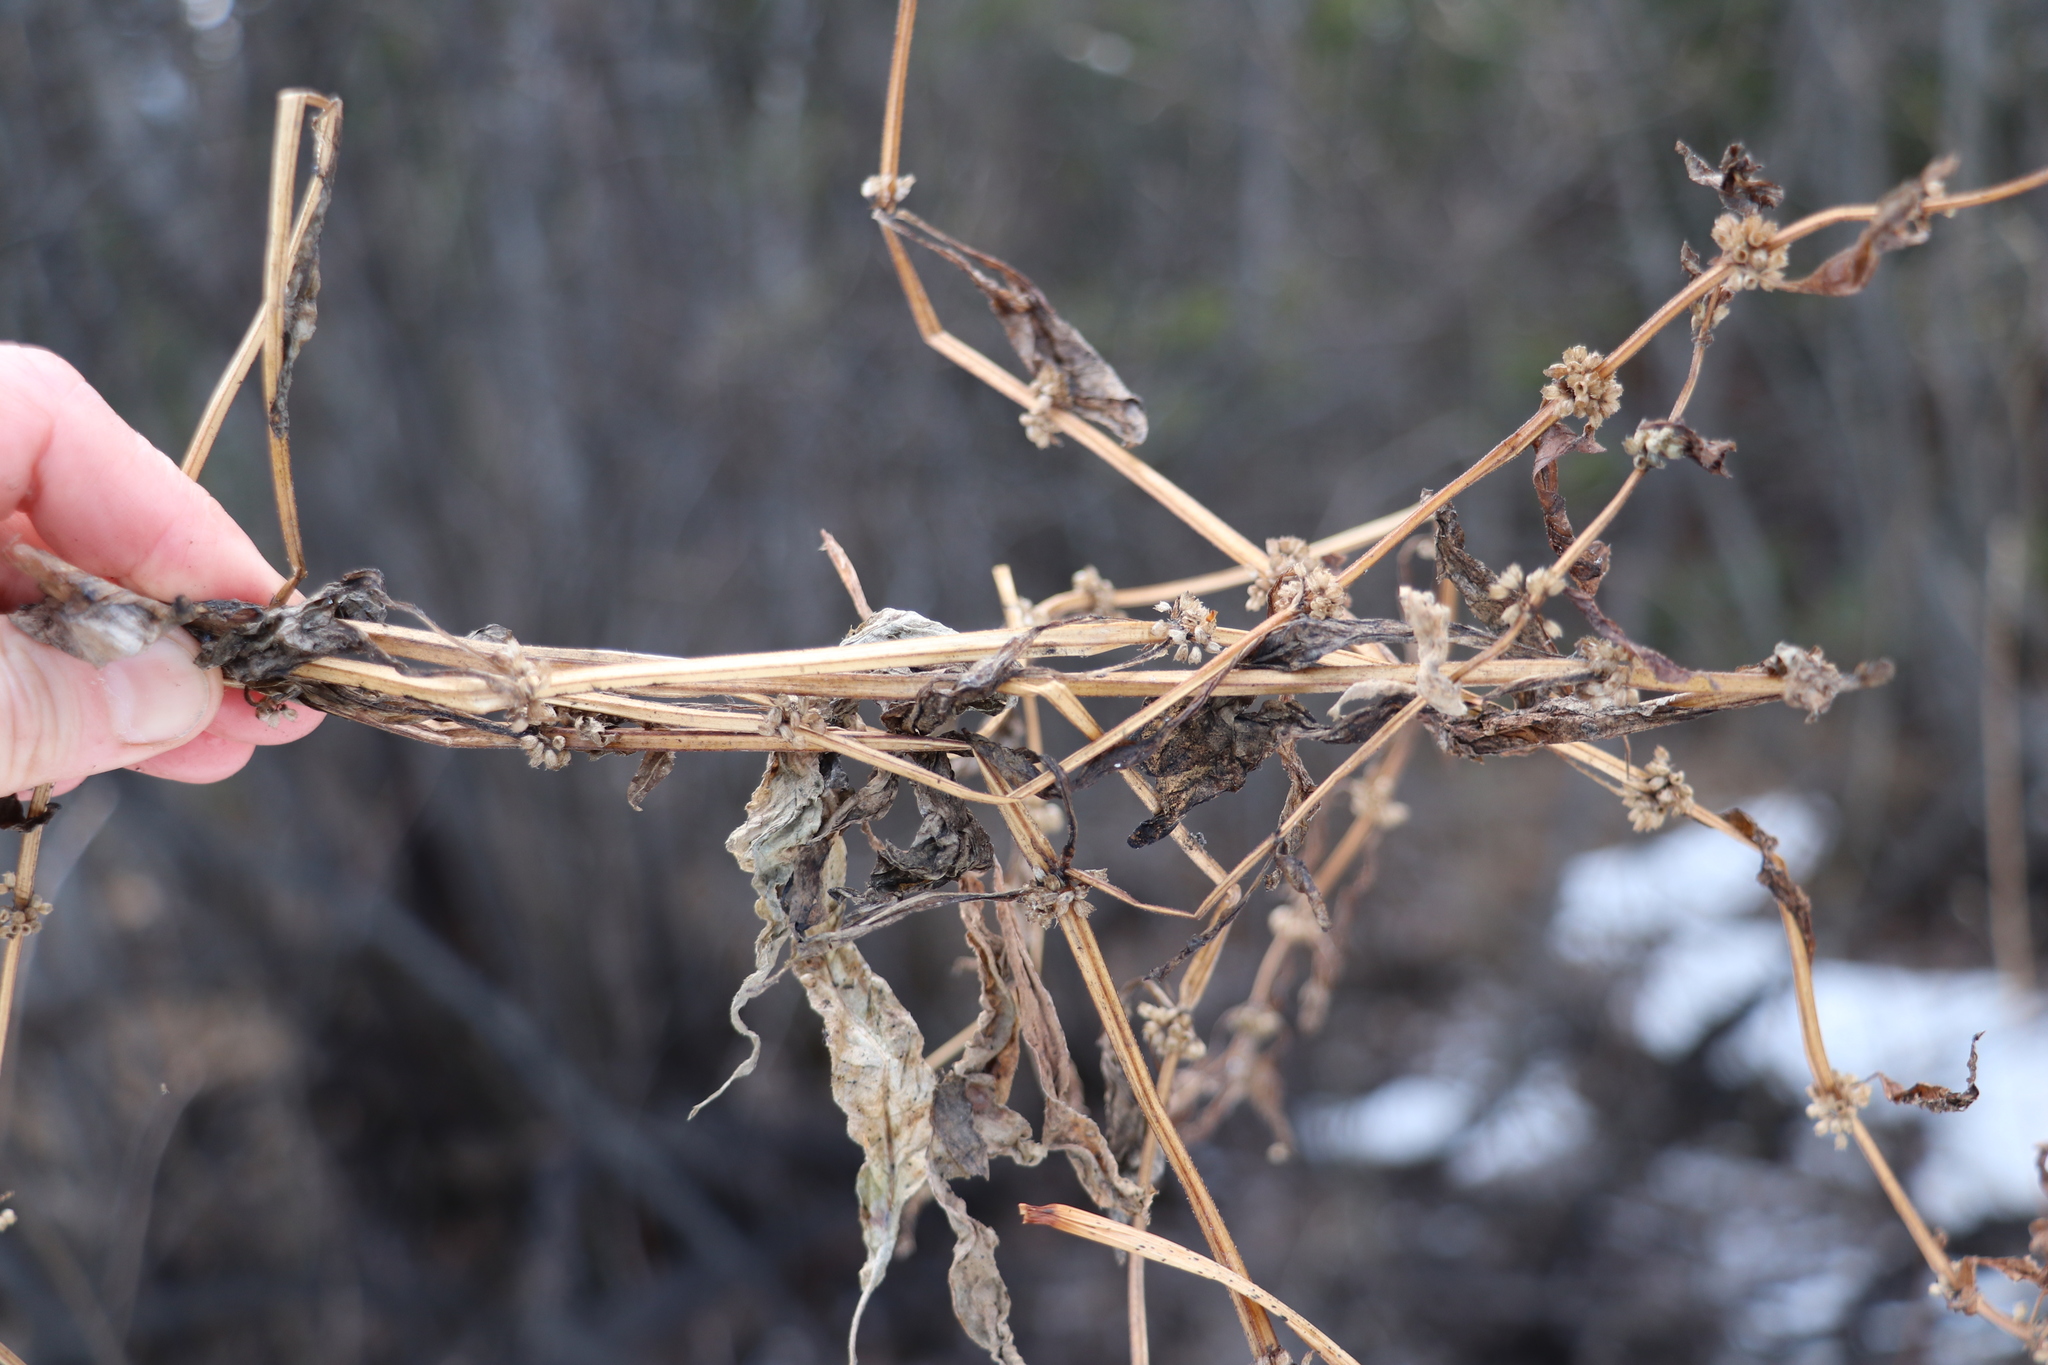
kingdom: Plantae
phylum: Tracheophyta
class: Magnoliopsida
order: Lamiales
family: Lamiaceae
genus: Mentha
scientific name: Mentha arvensis
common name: Corn mint
